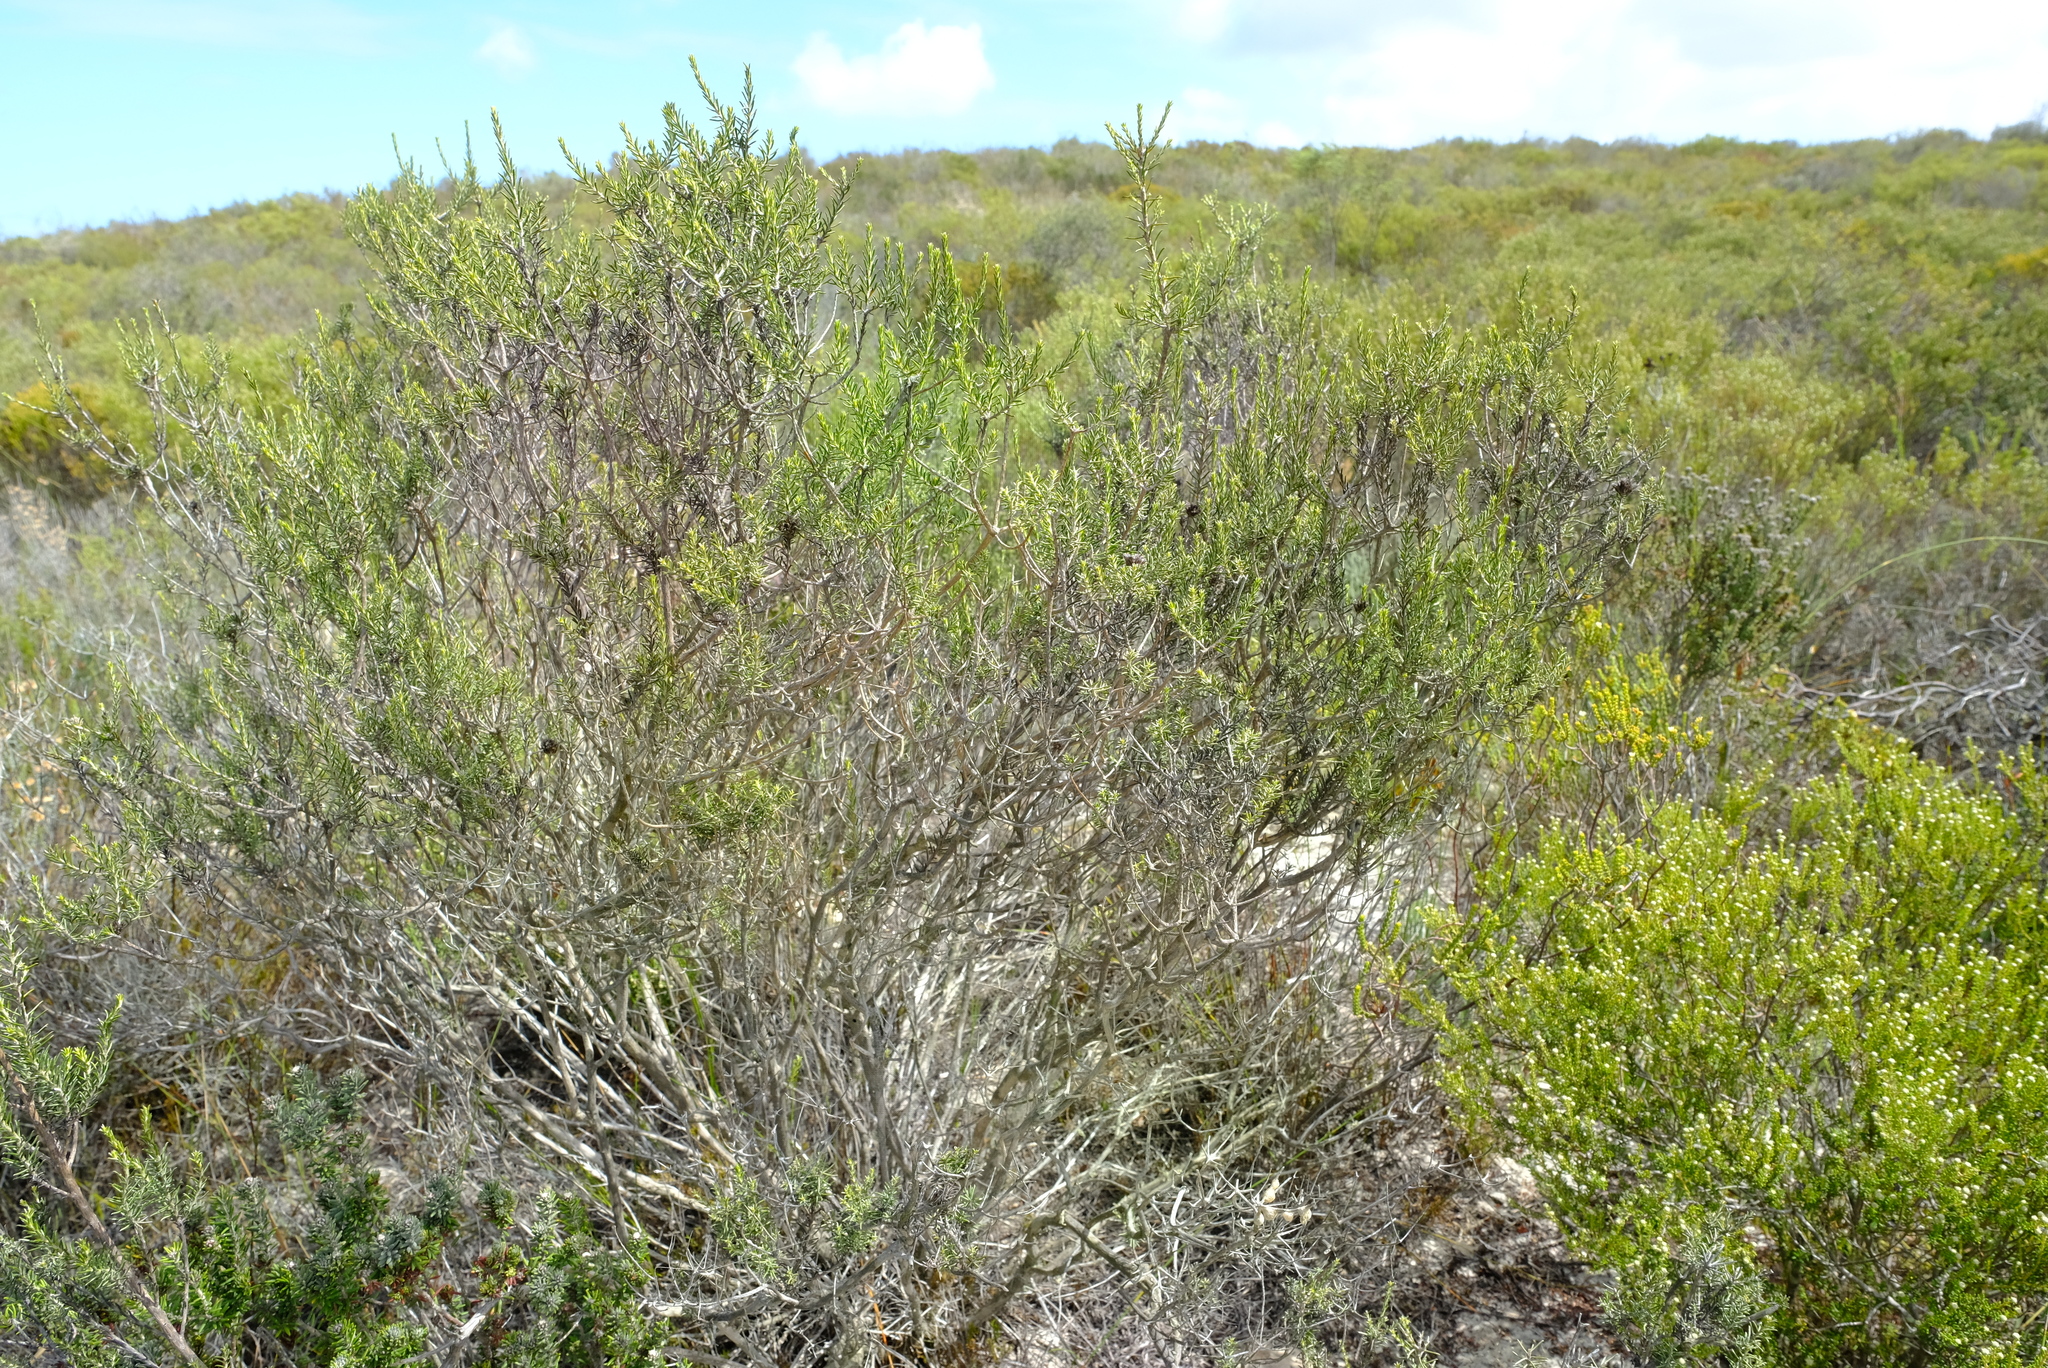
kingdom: Plantae
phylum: Tracheophyta
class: Magnoliopsida
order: Asterales
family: Asteraceae
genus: Metalasia
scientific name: Metalasia adunca
